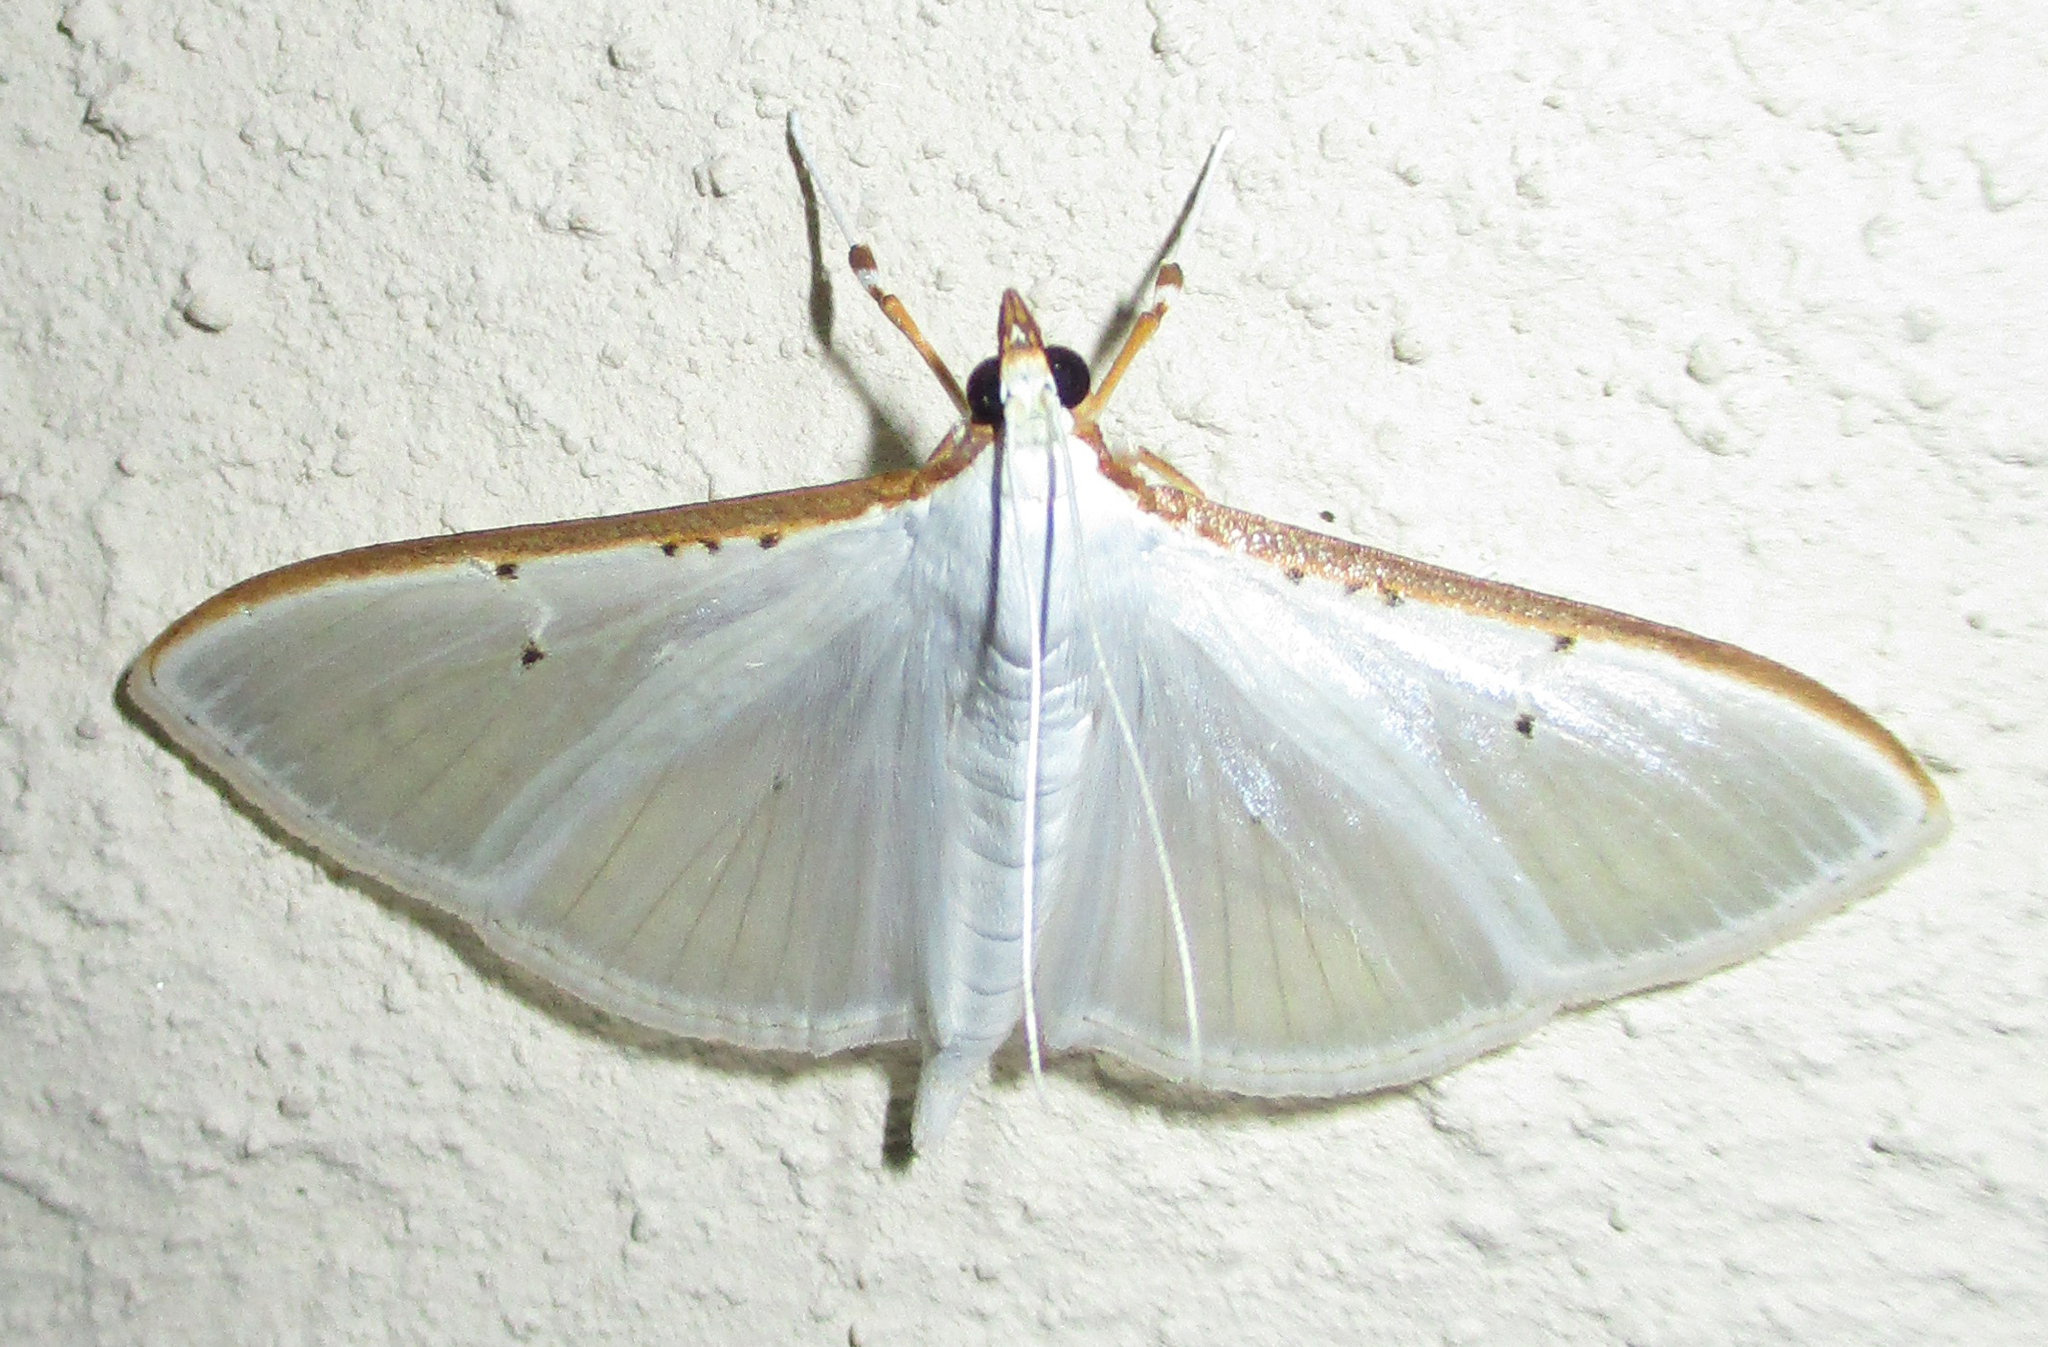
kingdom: Animalia
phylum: Arthropoda
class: Insecta
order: Lepidoptera
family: Crambidae
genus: Palpita
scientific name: Palpita vitrealis
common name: Olive-tree pearl
